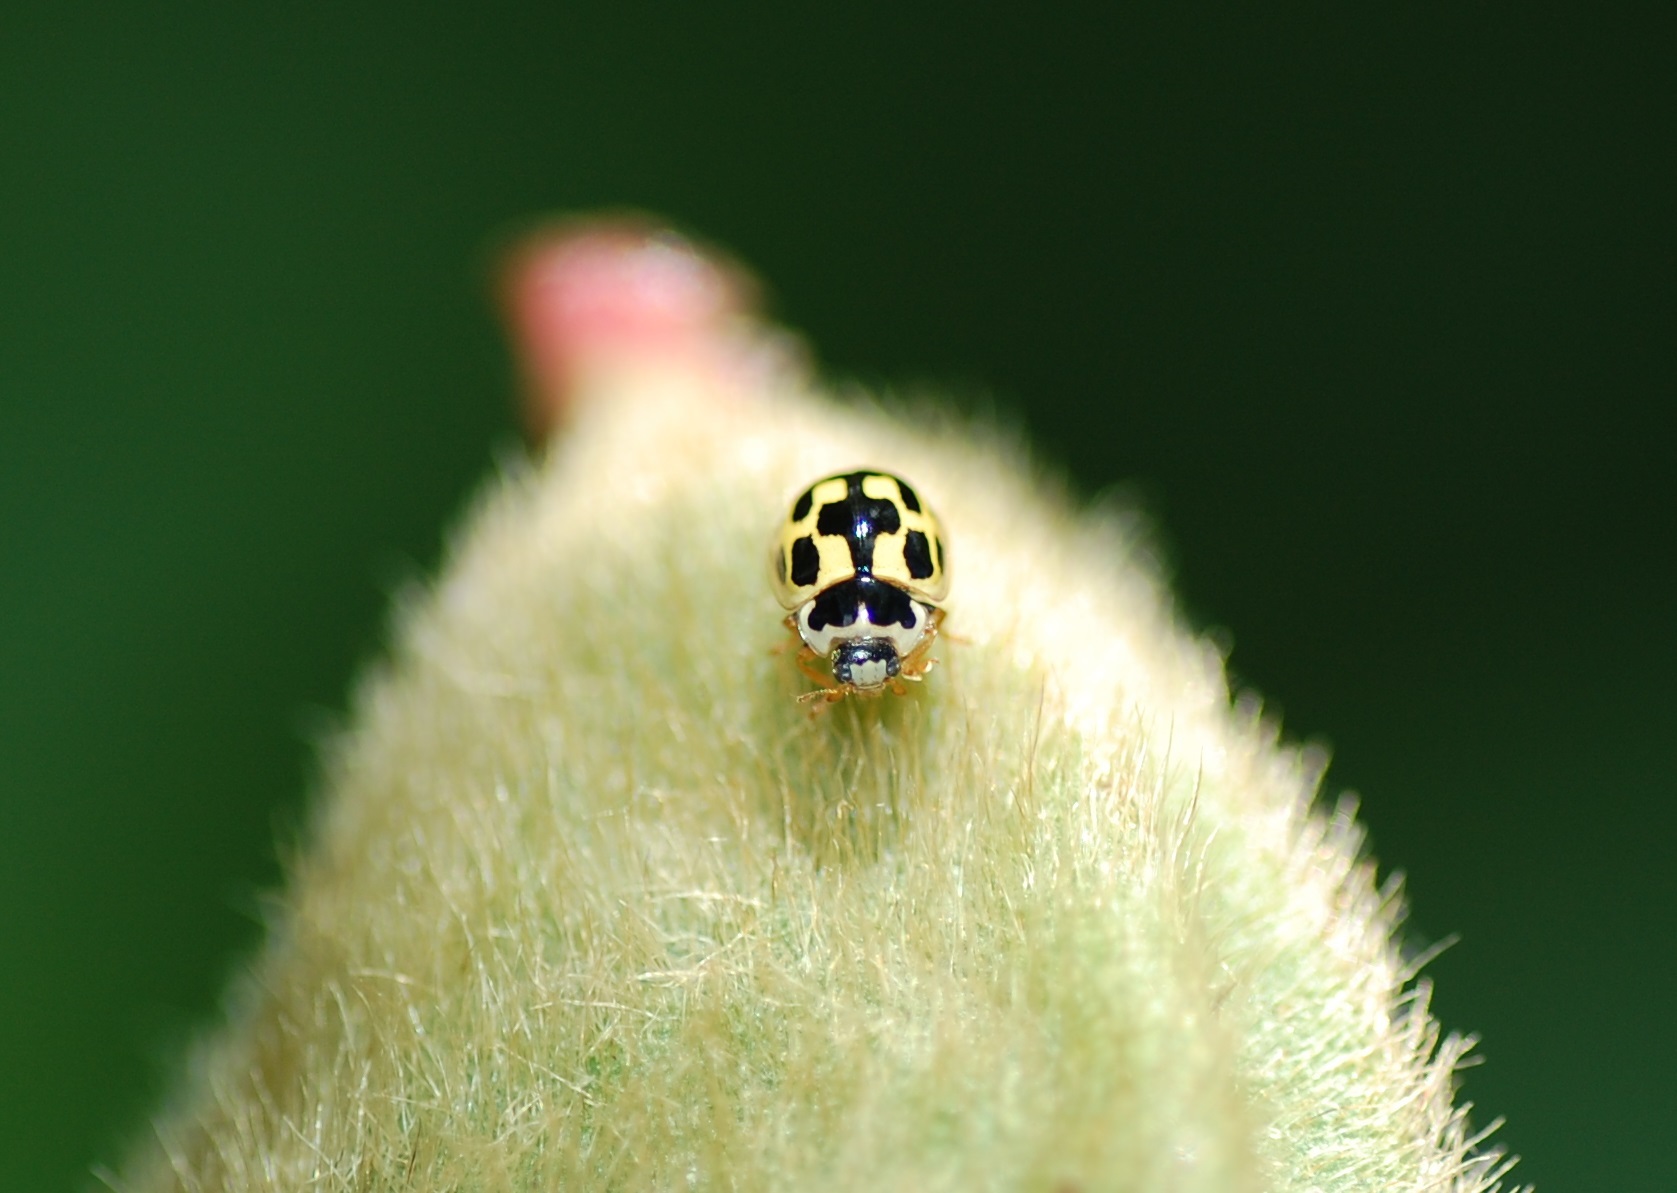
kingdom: Animalia
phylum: Arthropoda
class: Insecta
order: Coleoptera
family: Coccinellidae
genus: Propylaea
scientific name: Propylaea quatuordecimpunctata
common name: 14-spotted ladybird beetle
